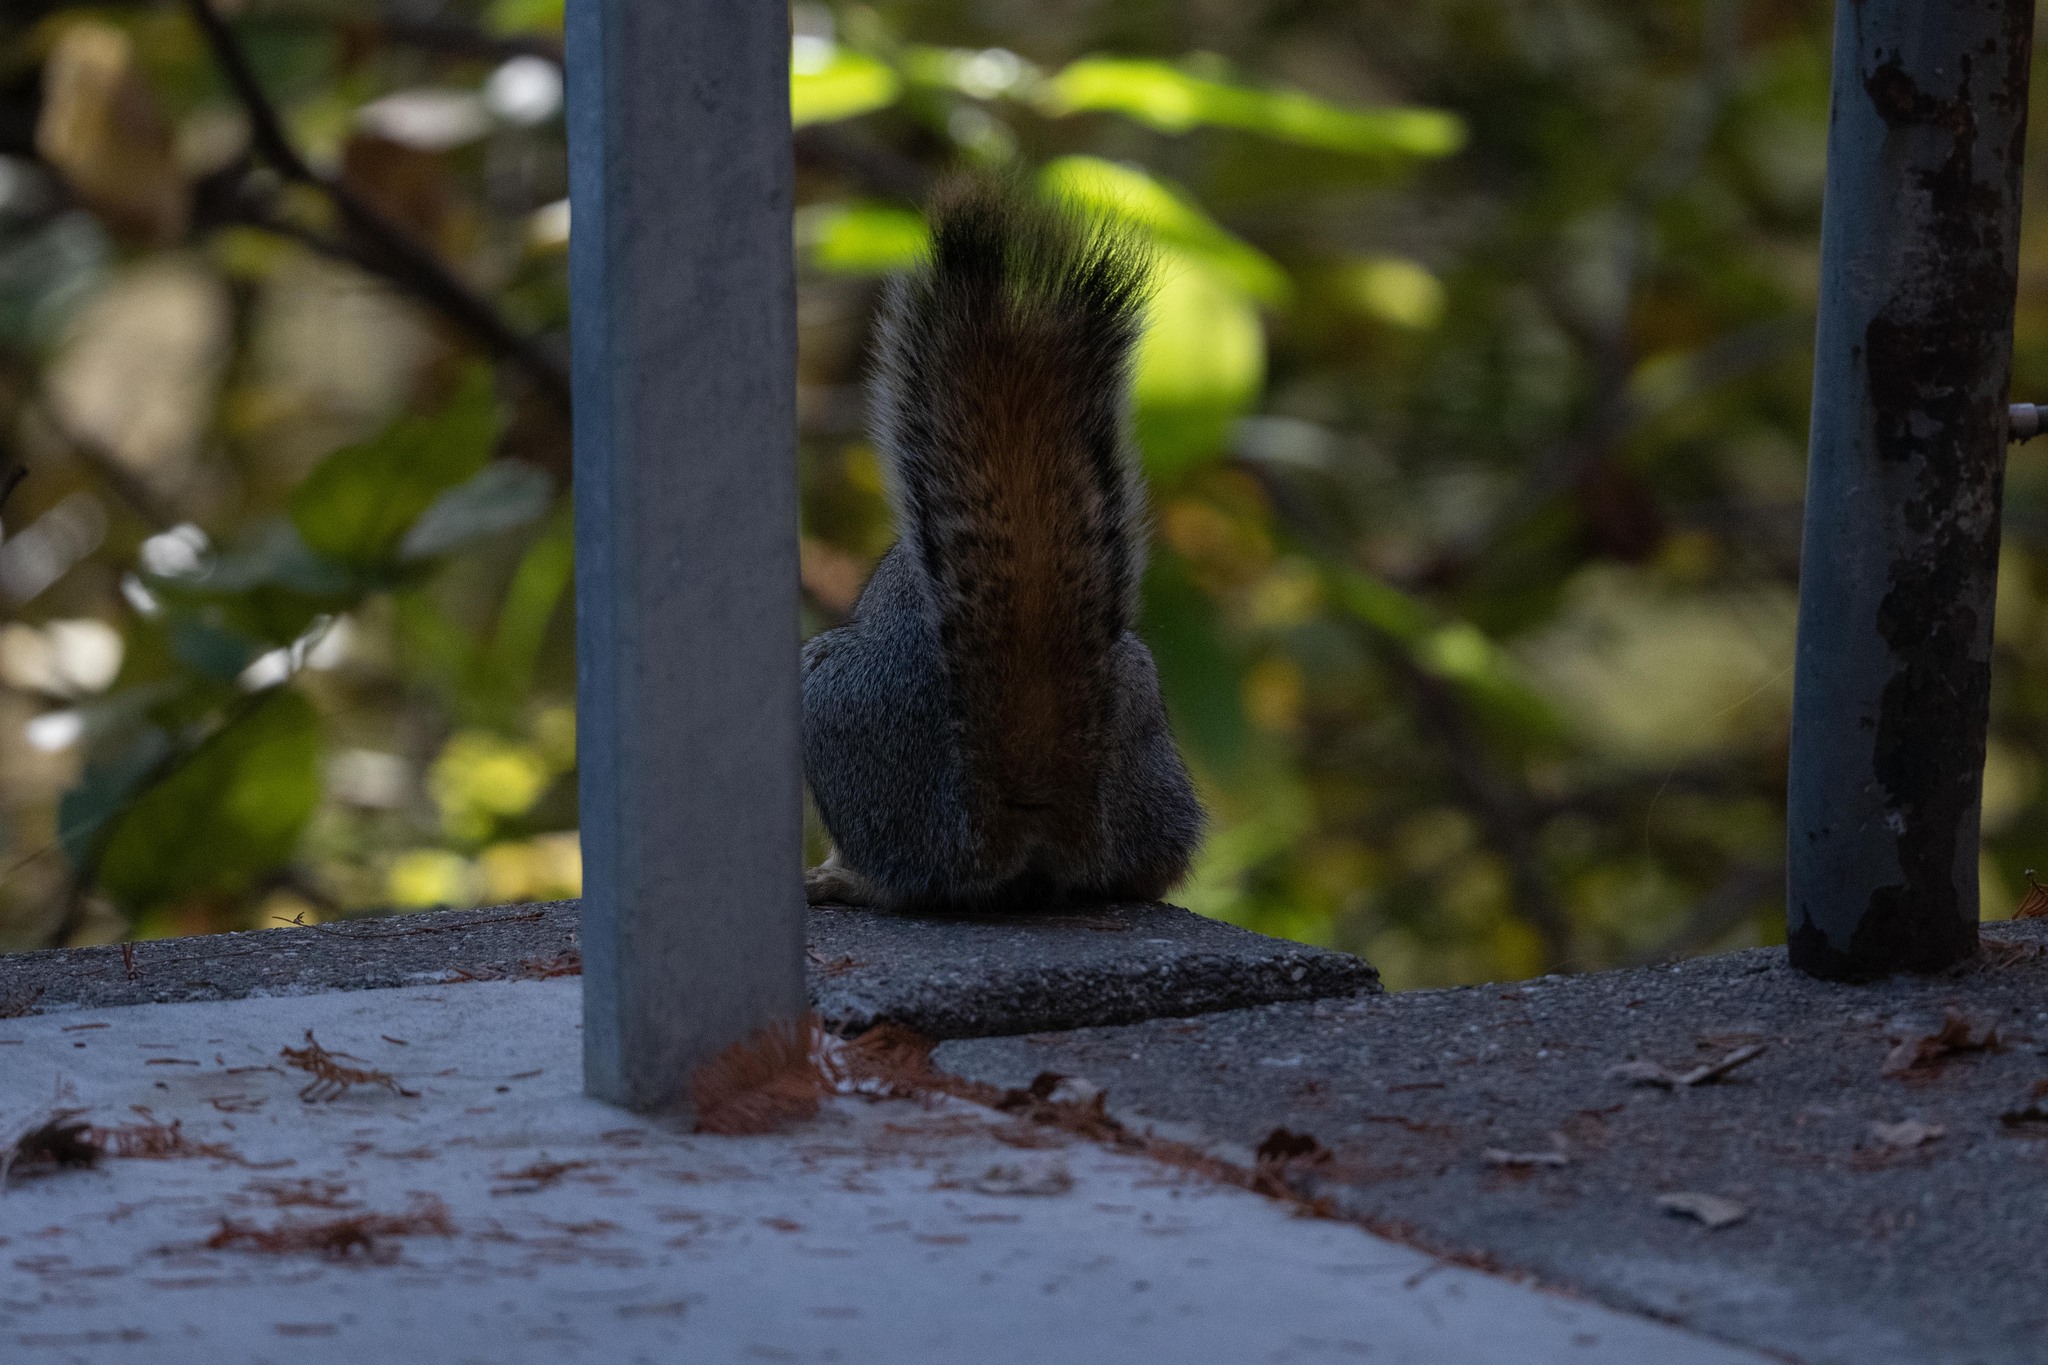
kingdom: Animalia
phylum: Chordata
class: Mammalia
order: Rodentia
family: Sciuridae
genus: Sciurus
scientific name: Sciurus carolinensis
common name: Eastern gray squirrel
